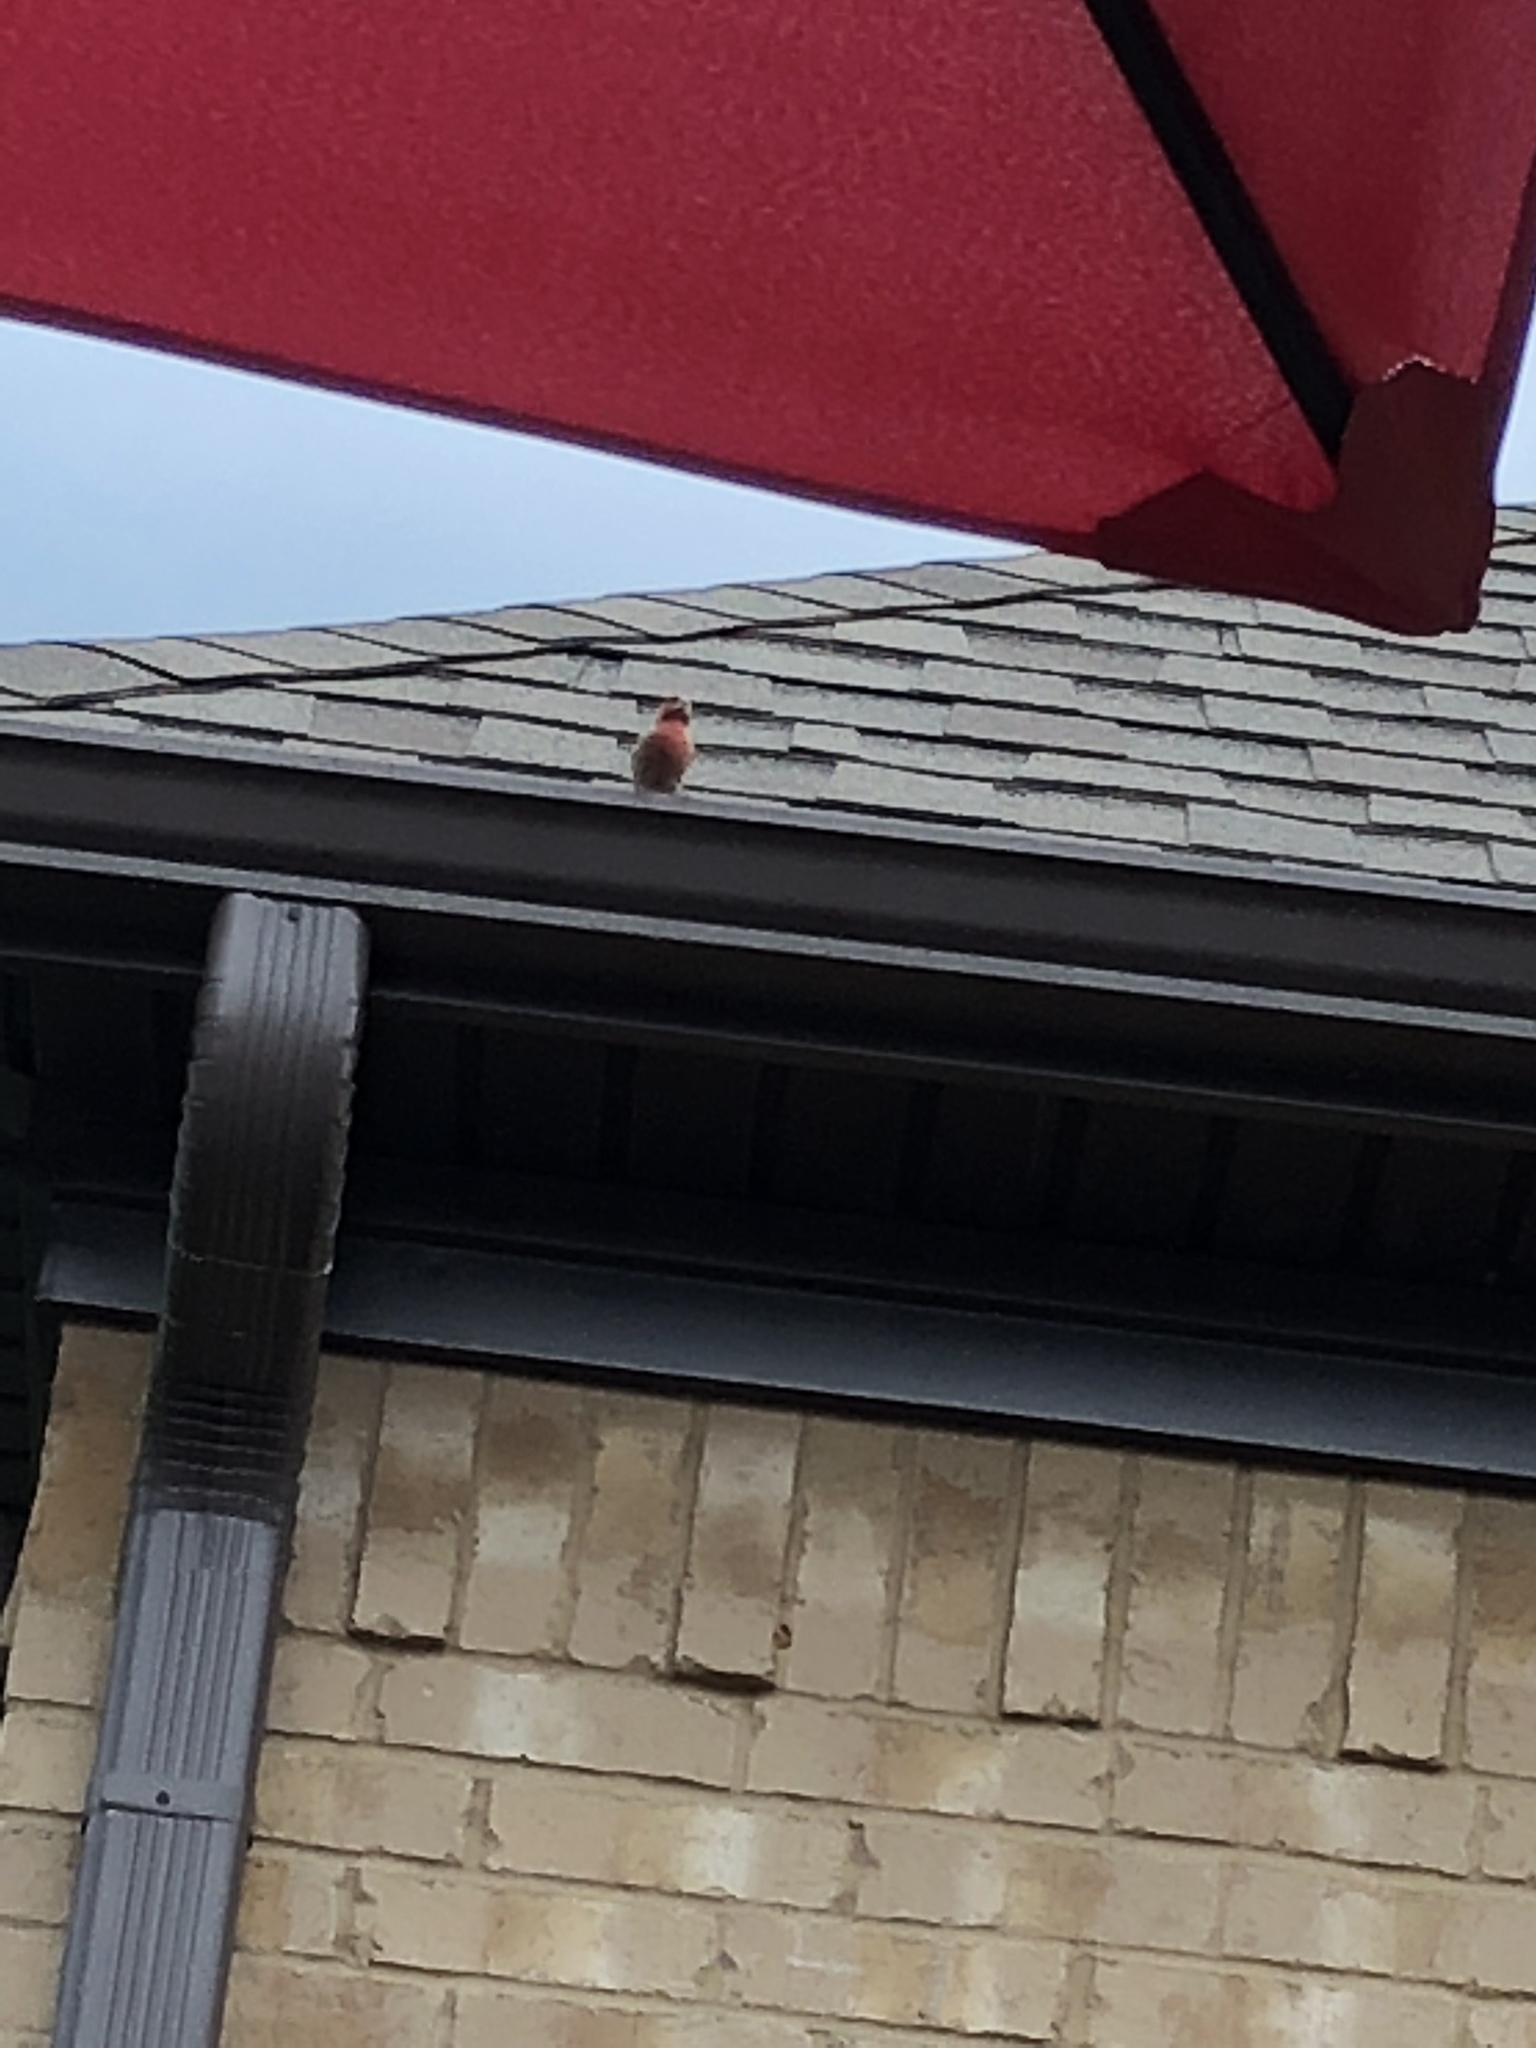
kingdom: Animalia
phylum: Chordata
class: Aves
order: Passeriformes
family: Fringillidae
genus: Haemorhous
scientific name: Haemorhous mexicanus
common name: House finch
